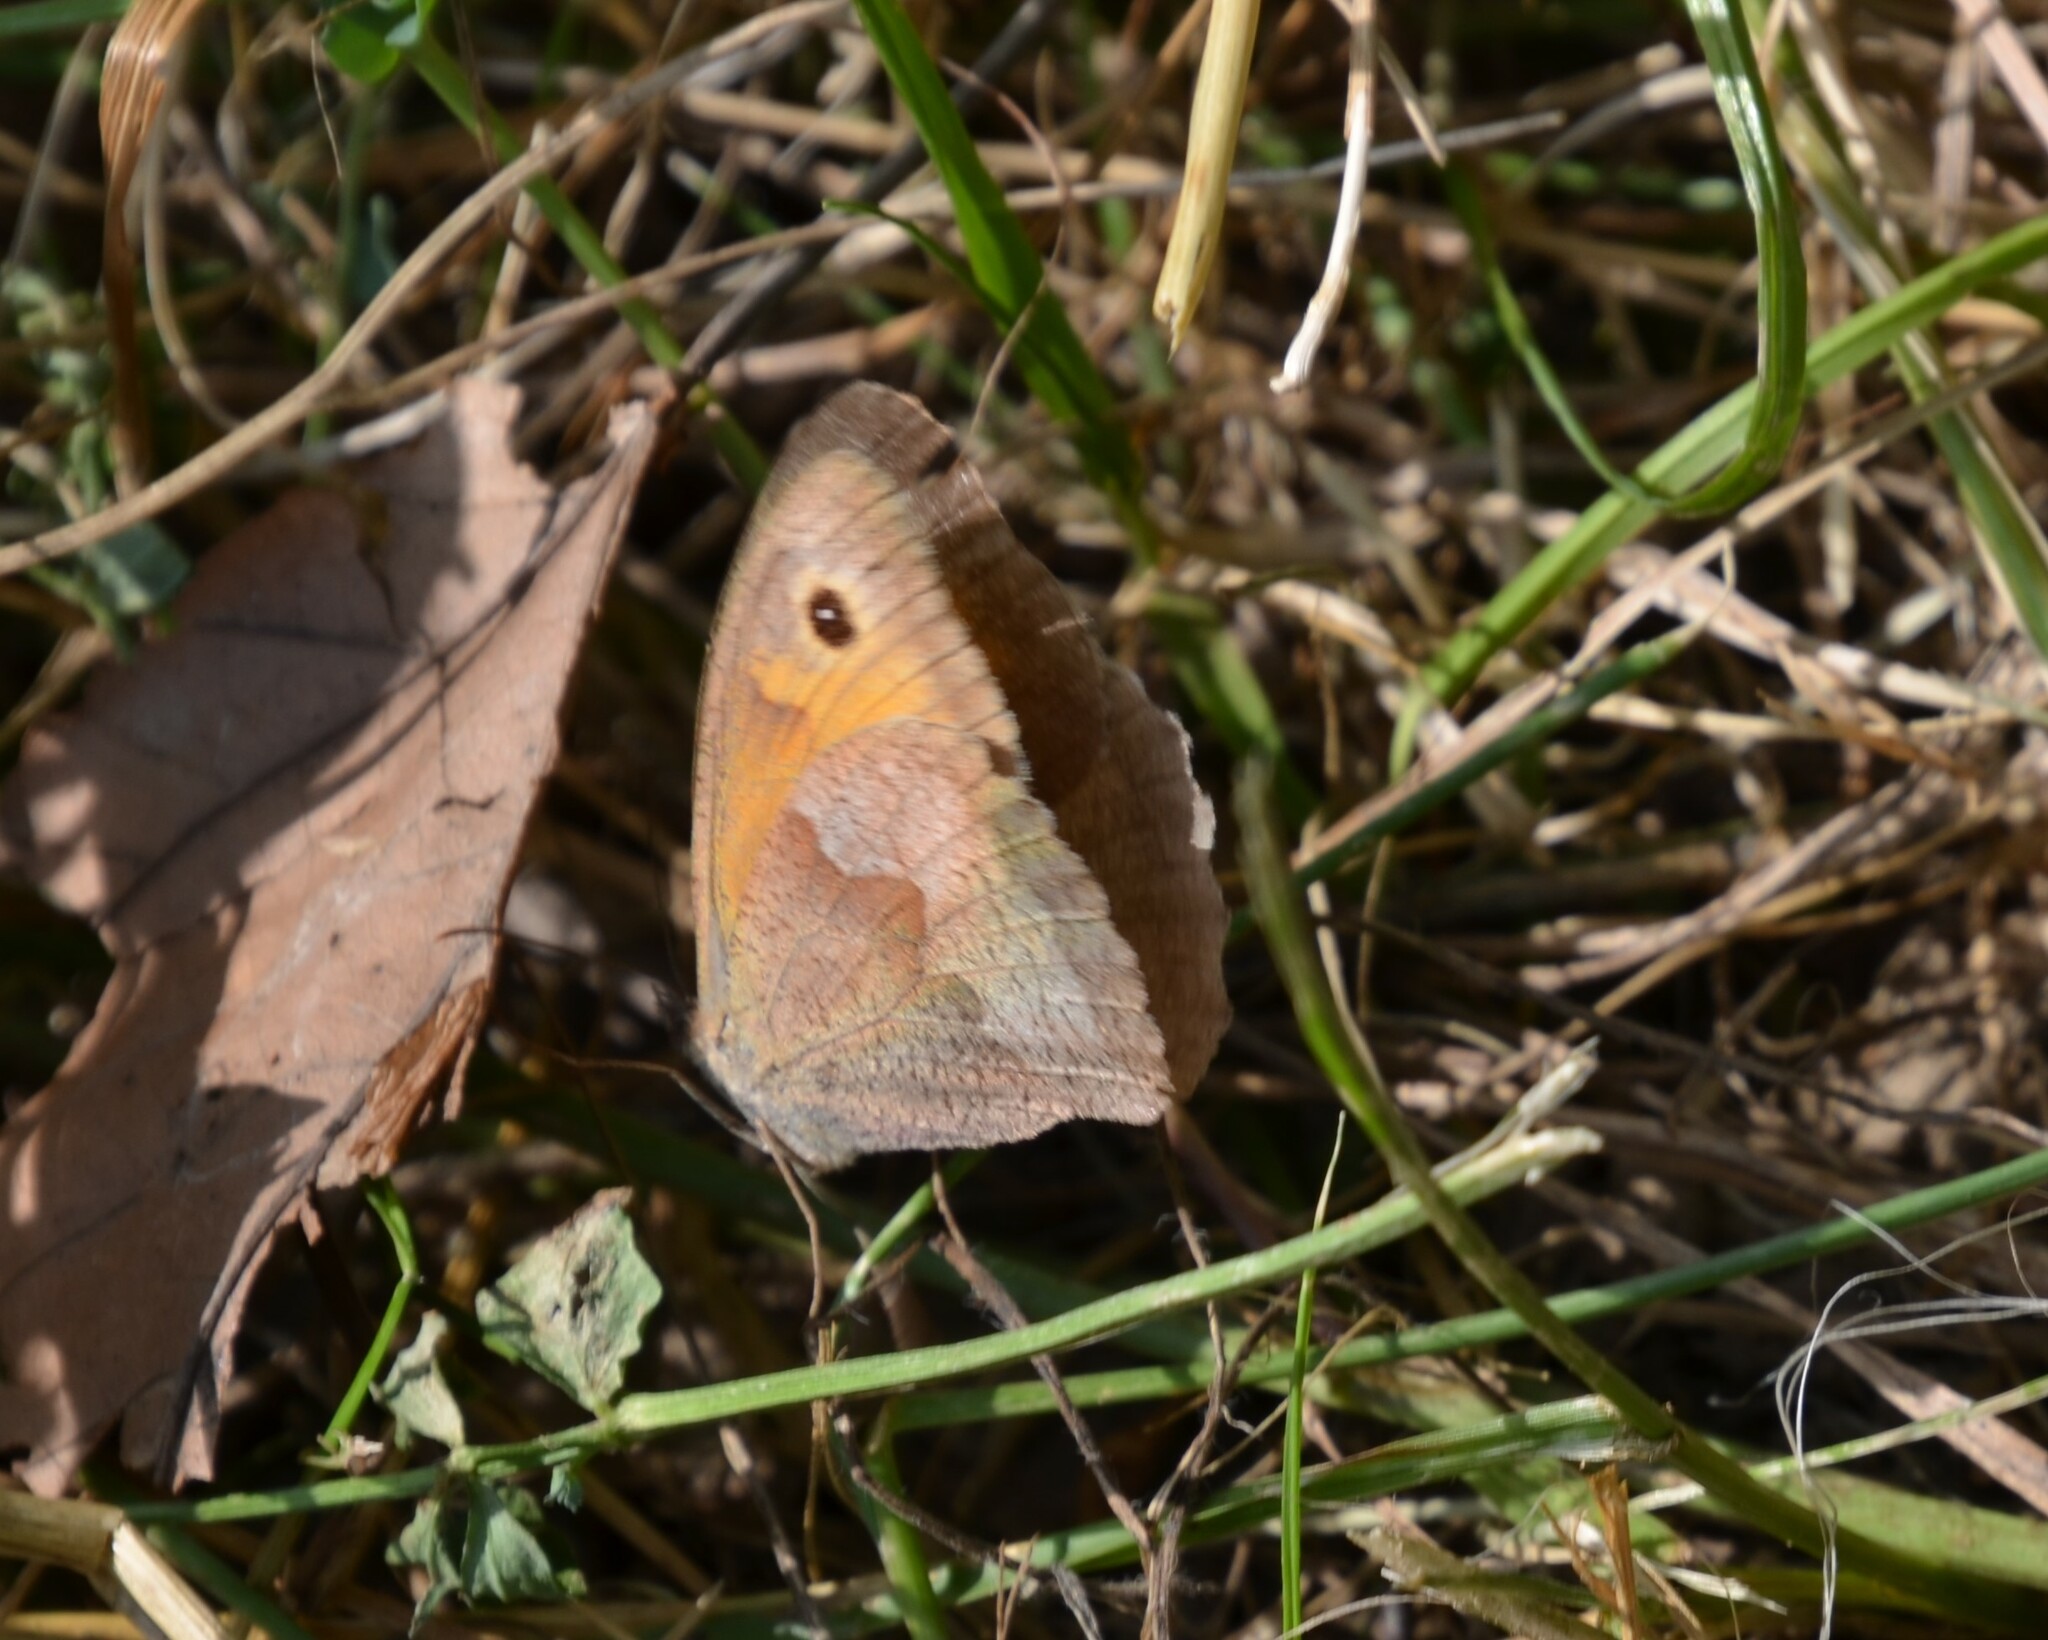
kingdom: Animalia
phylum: Arthropoda
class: Insecta
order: Lepidoptera
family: Nymphalidae
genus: Maniola
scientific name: Maniola jurtina
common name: Meadow brown
